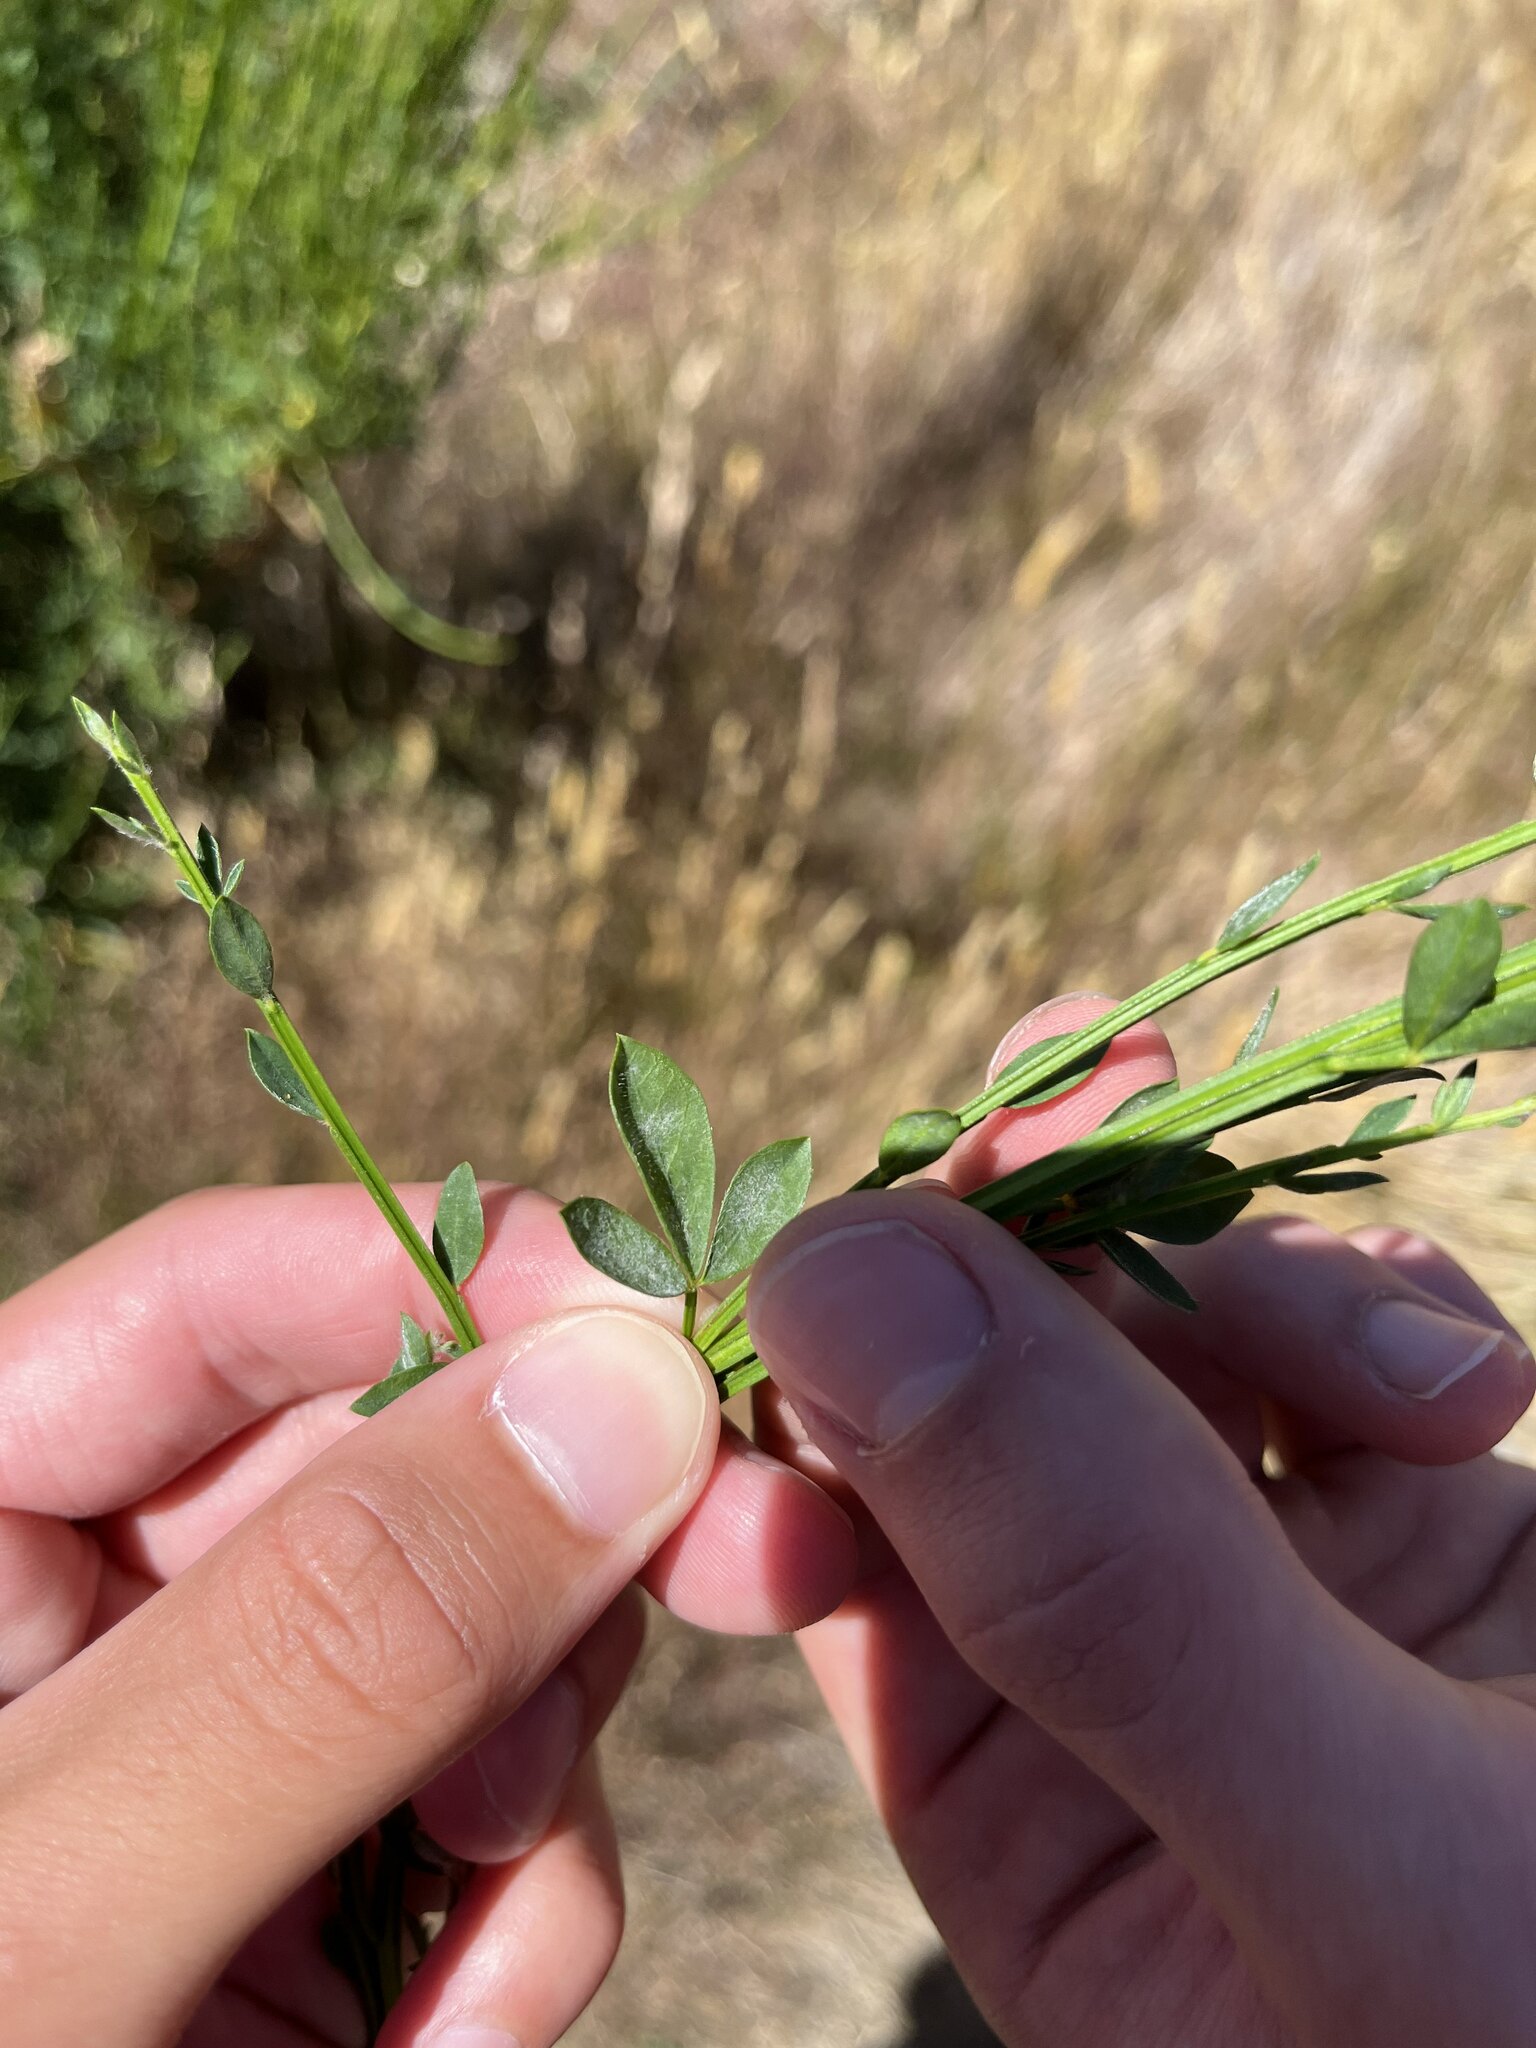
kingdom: Plantae
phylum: Tracheophyta
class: Magnoliopsida
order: Fabales
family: Fabaceae
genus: Cytisus
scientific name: Cytisus scoparius
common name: Scotch broom
